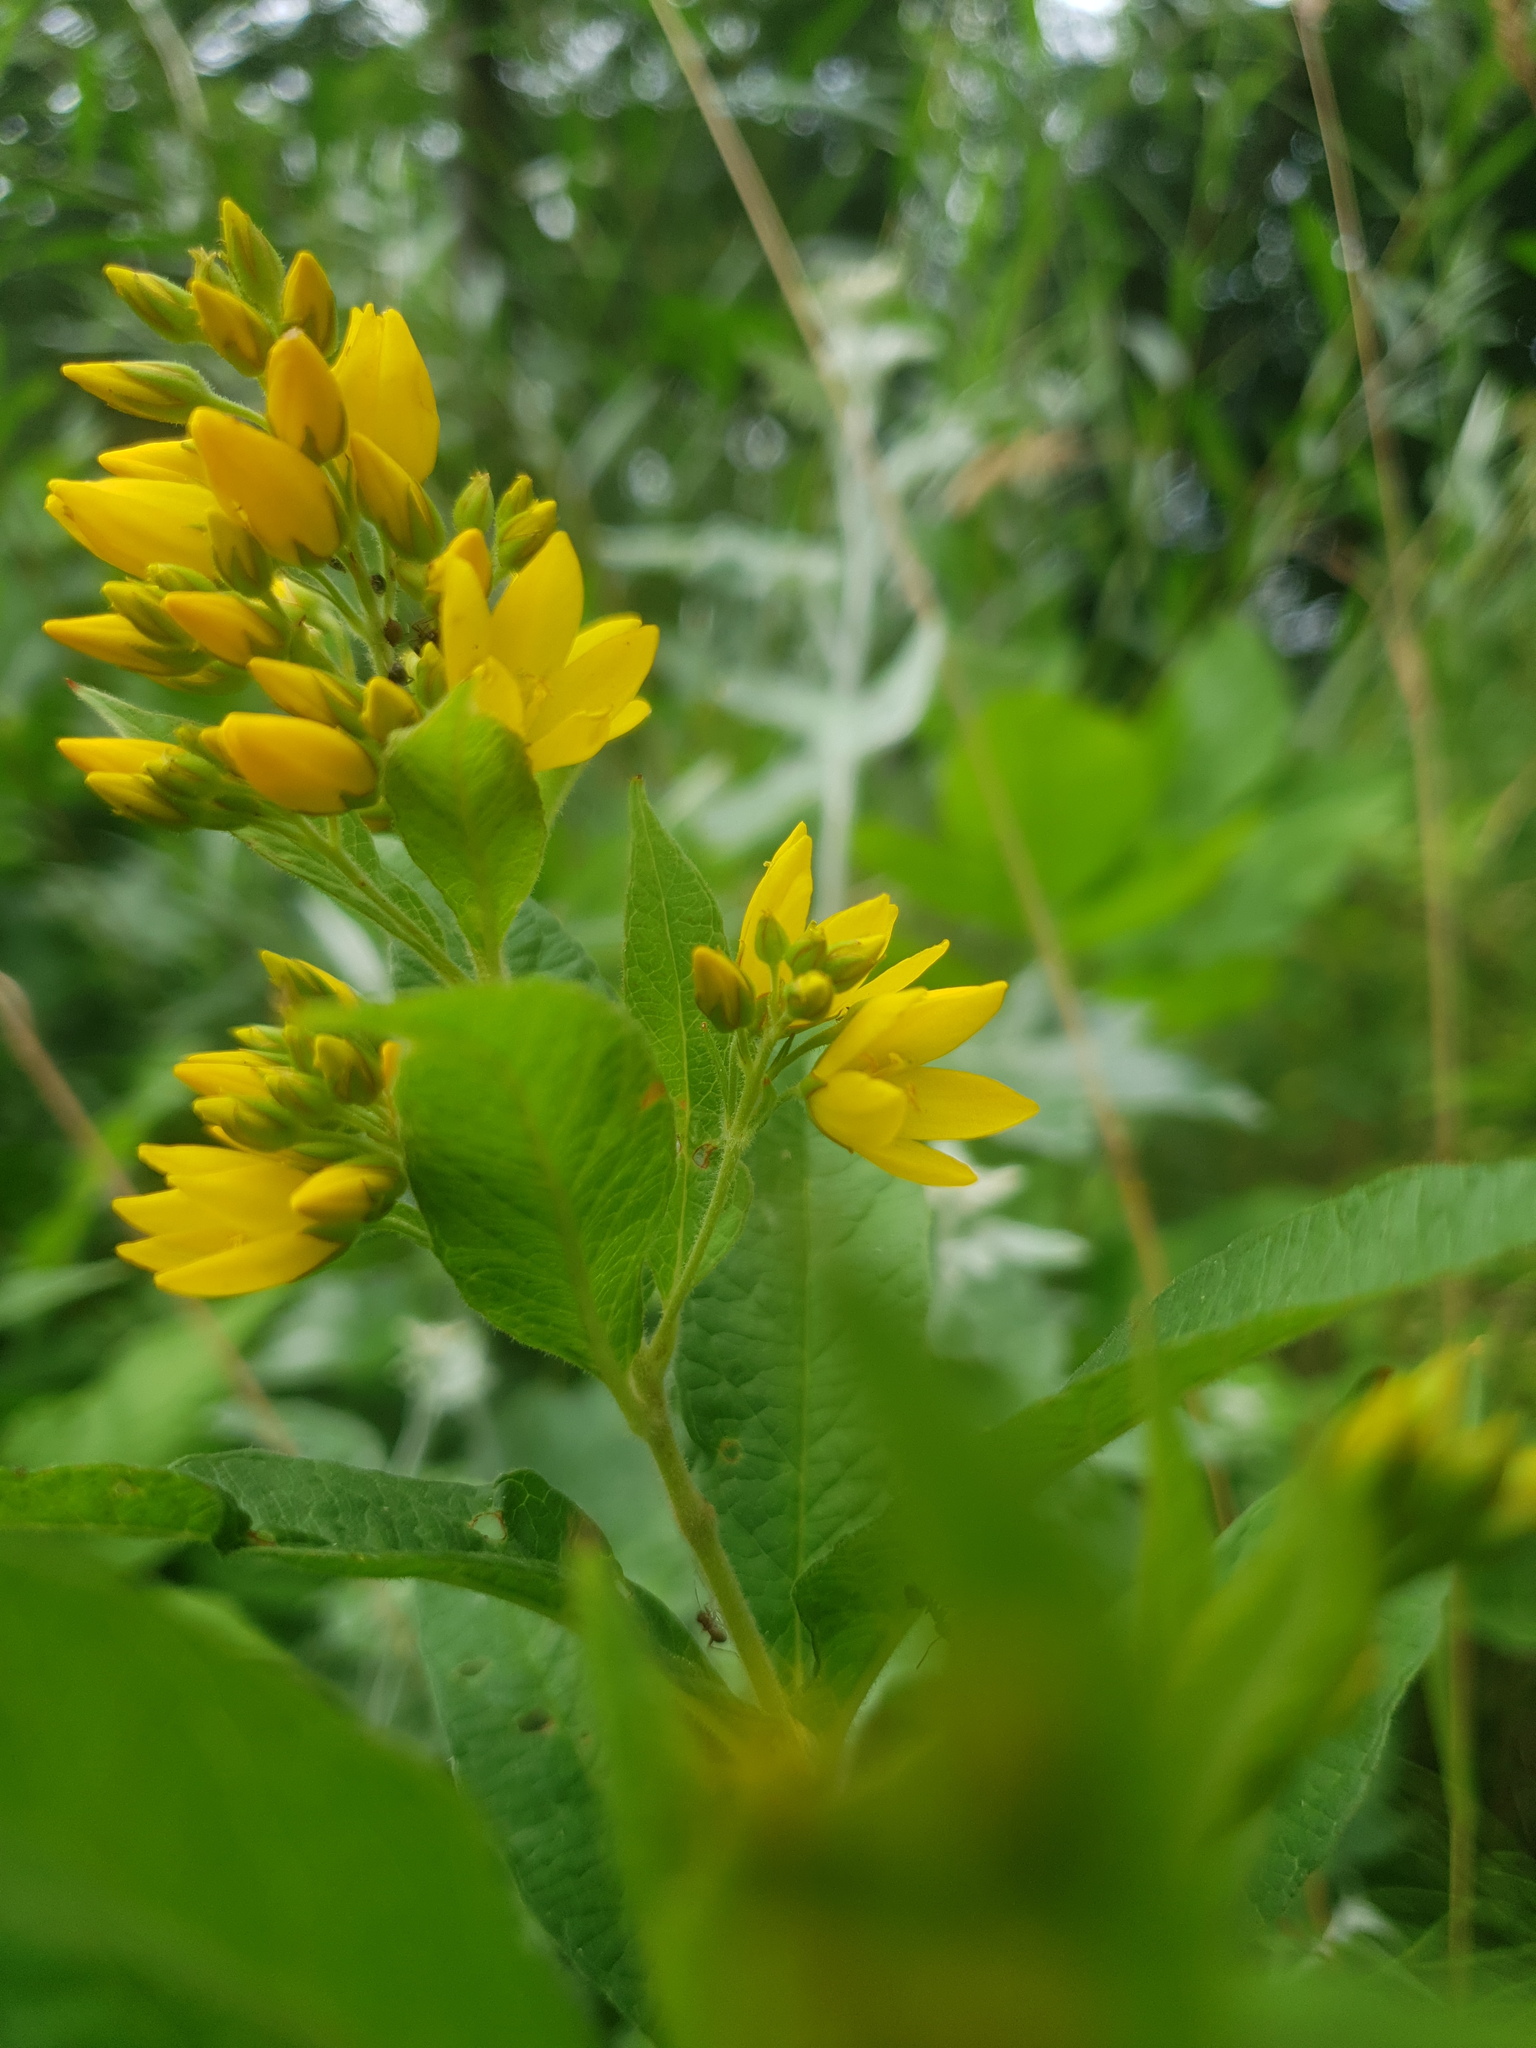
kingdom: Plantae
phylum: Tracheophyta
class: Magnoliopsida
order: Ericales
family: Primulaceae
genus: Lysimachia
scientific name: Lysimachia vulgaris
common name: Yellow loosestrife
